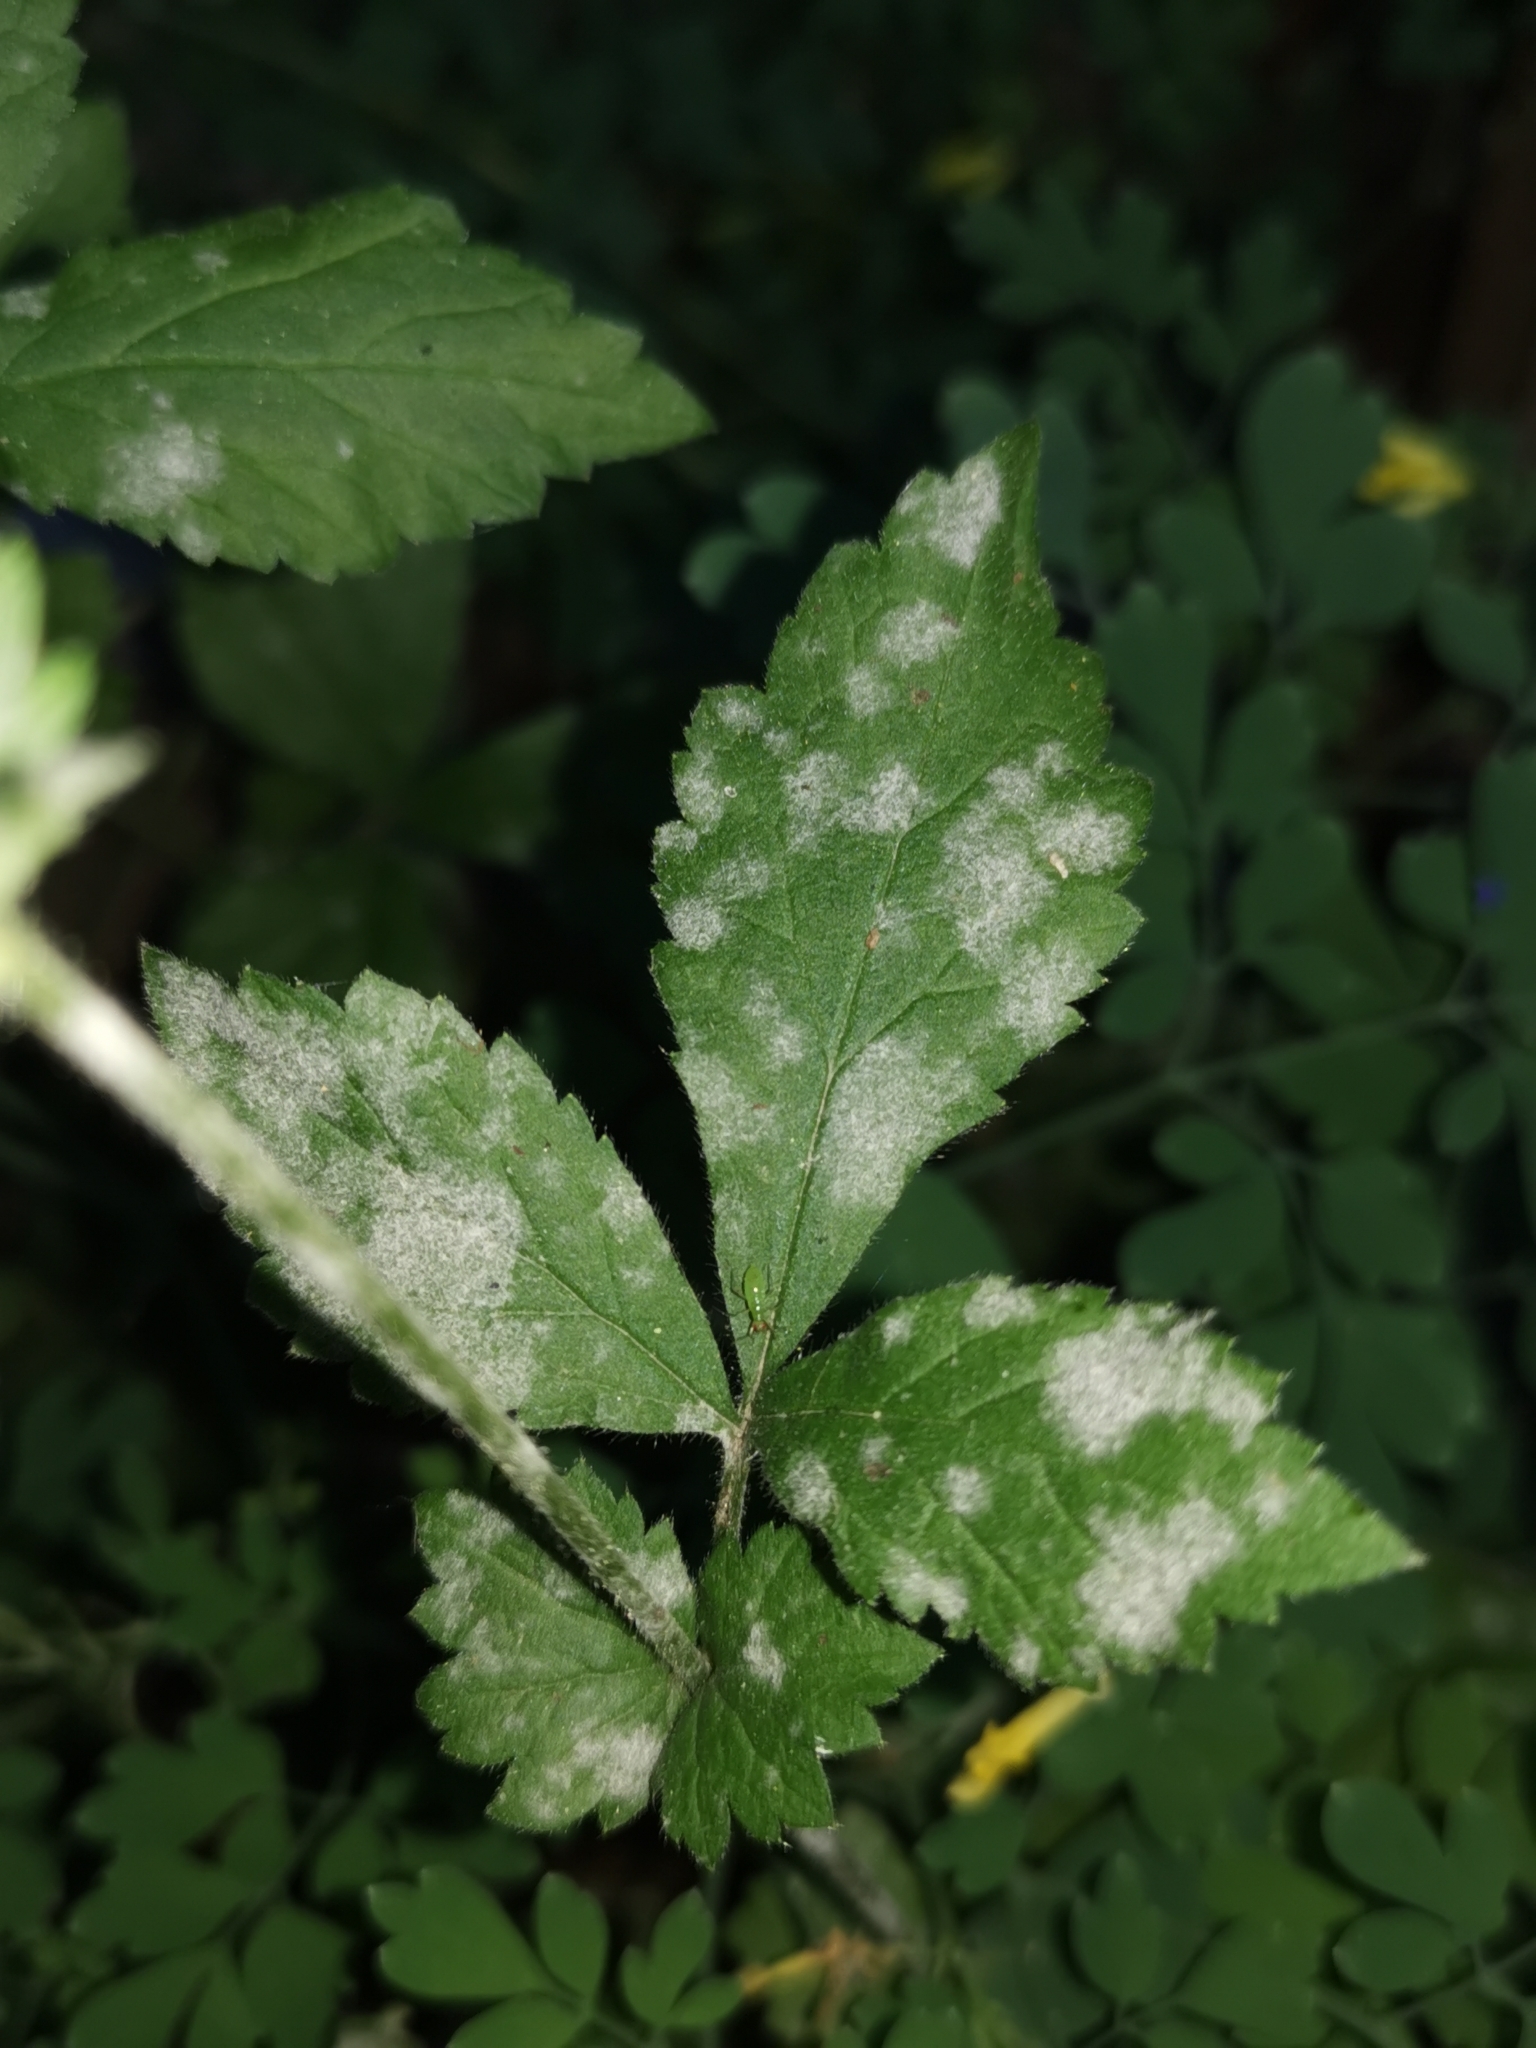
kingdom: Fungi
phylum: Ascomycota
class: Leotiomycetes
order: Helotiales
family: Erysiphaceae
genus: Podosphaera
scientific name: Podosphaera aphanis
